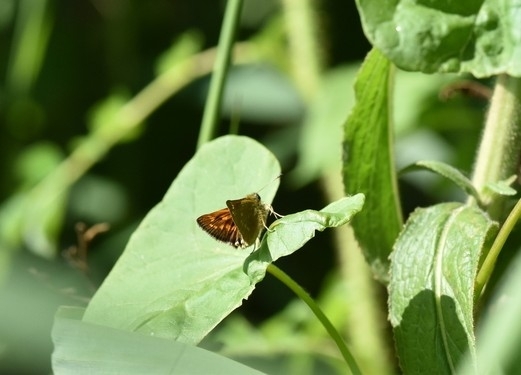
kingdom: Animalia
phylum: Arthropoda
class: Insecta
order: Lepidoptera
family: Hesperiidae
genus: Ochlodes
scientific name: Ochlodes venata
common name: Large skipper
